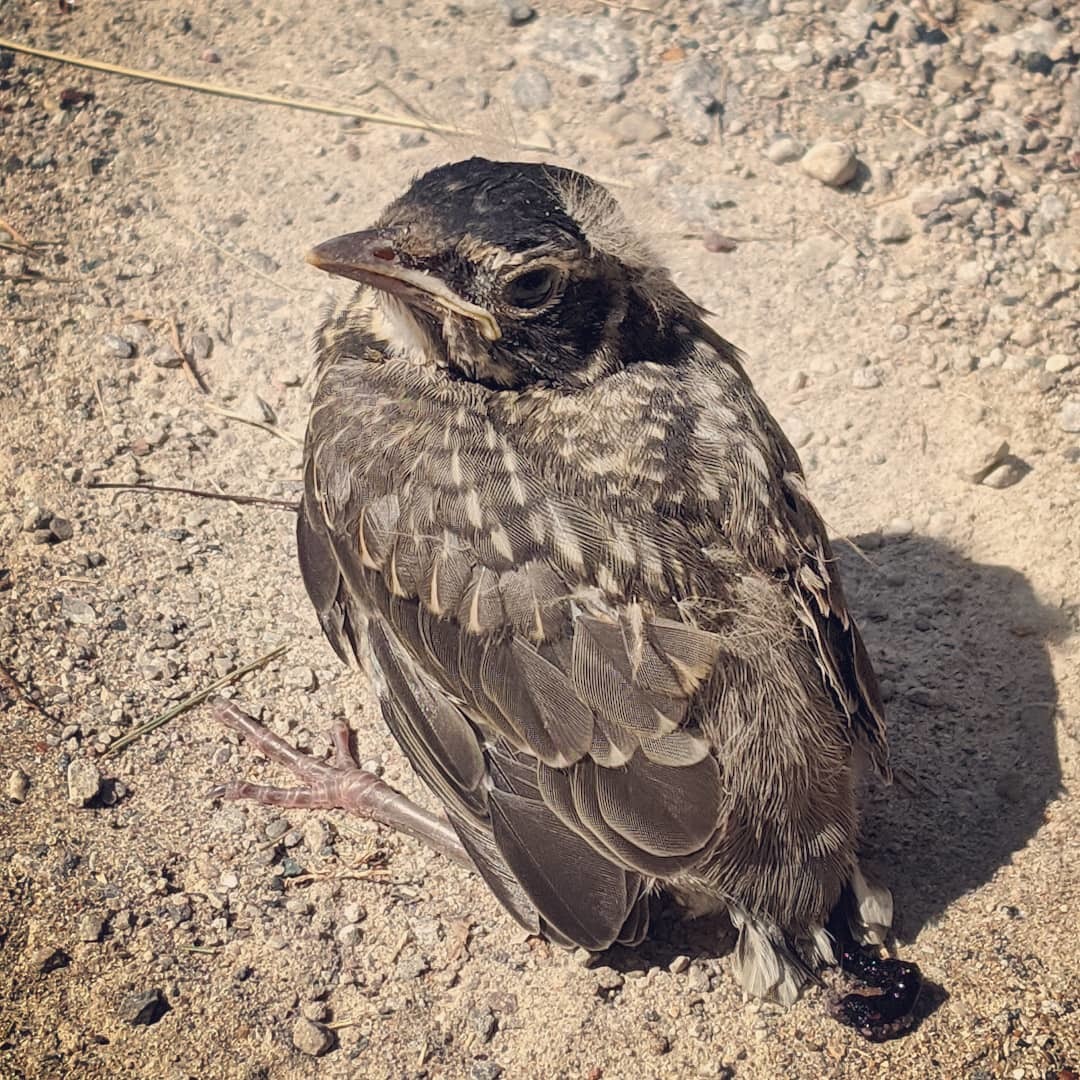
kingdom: Animalia
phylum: Chordata
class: Aves
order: Passeriformes
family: Turdidae
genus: Turdus
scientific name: Turdus migratorius
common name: American robin
